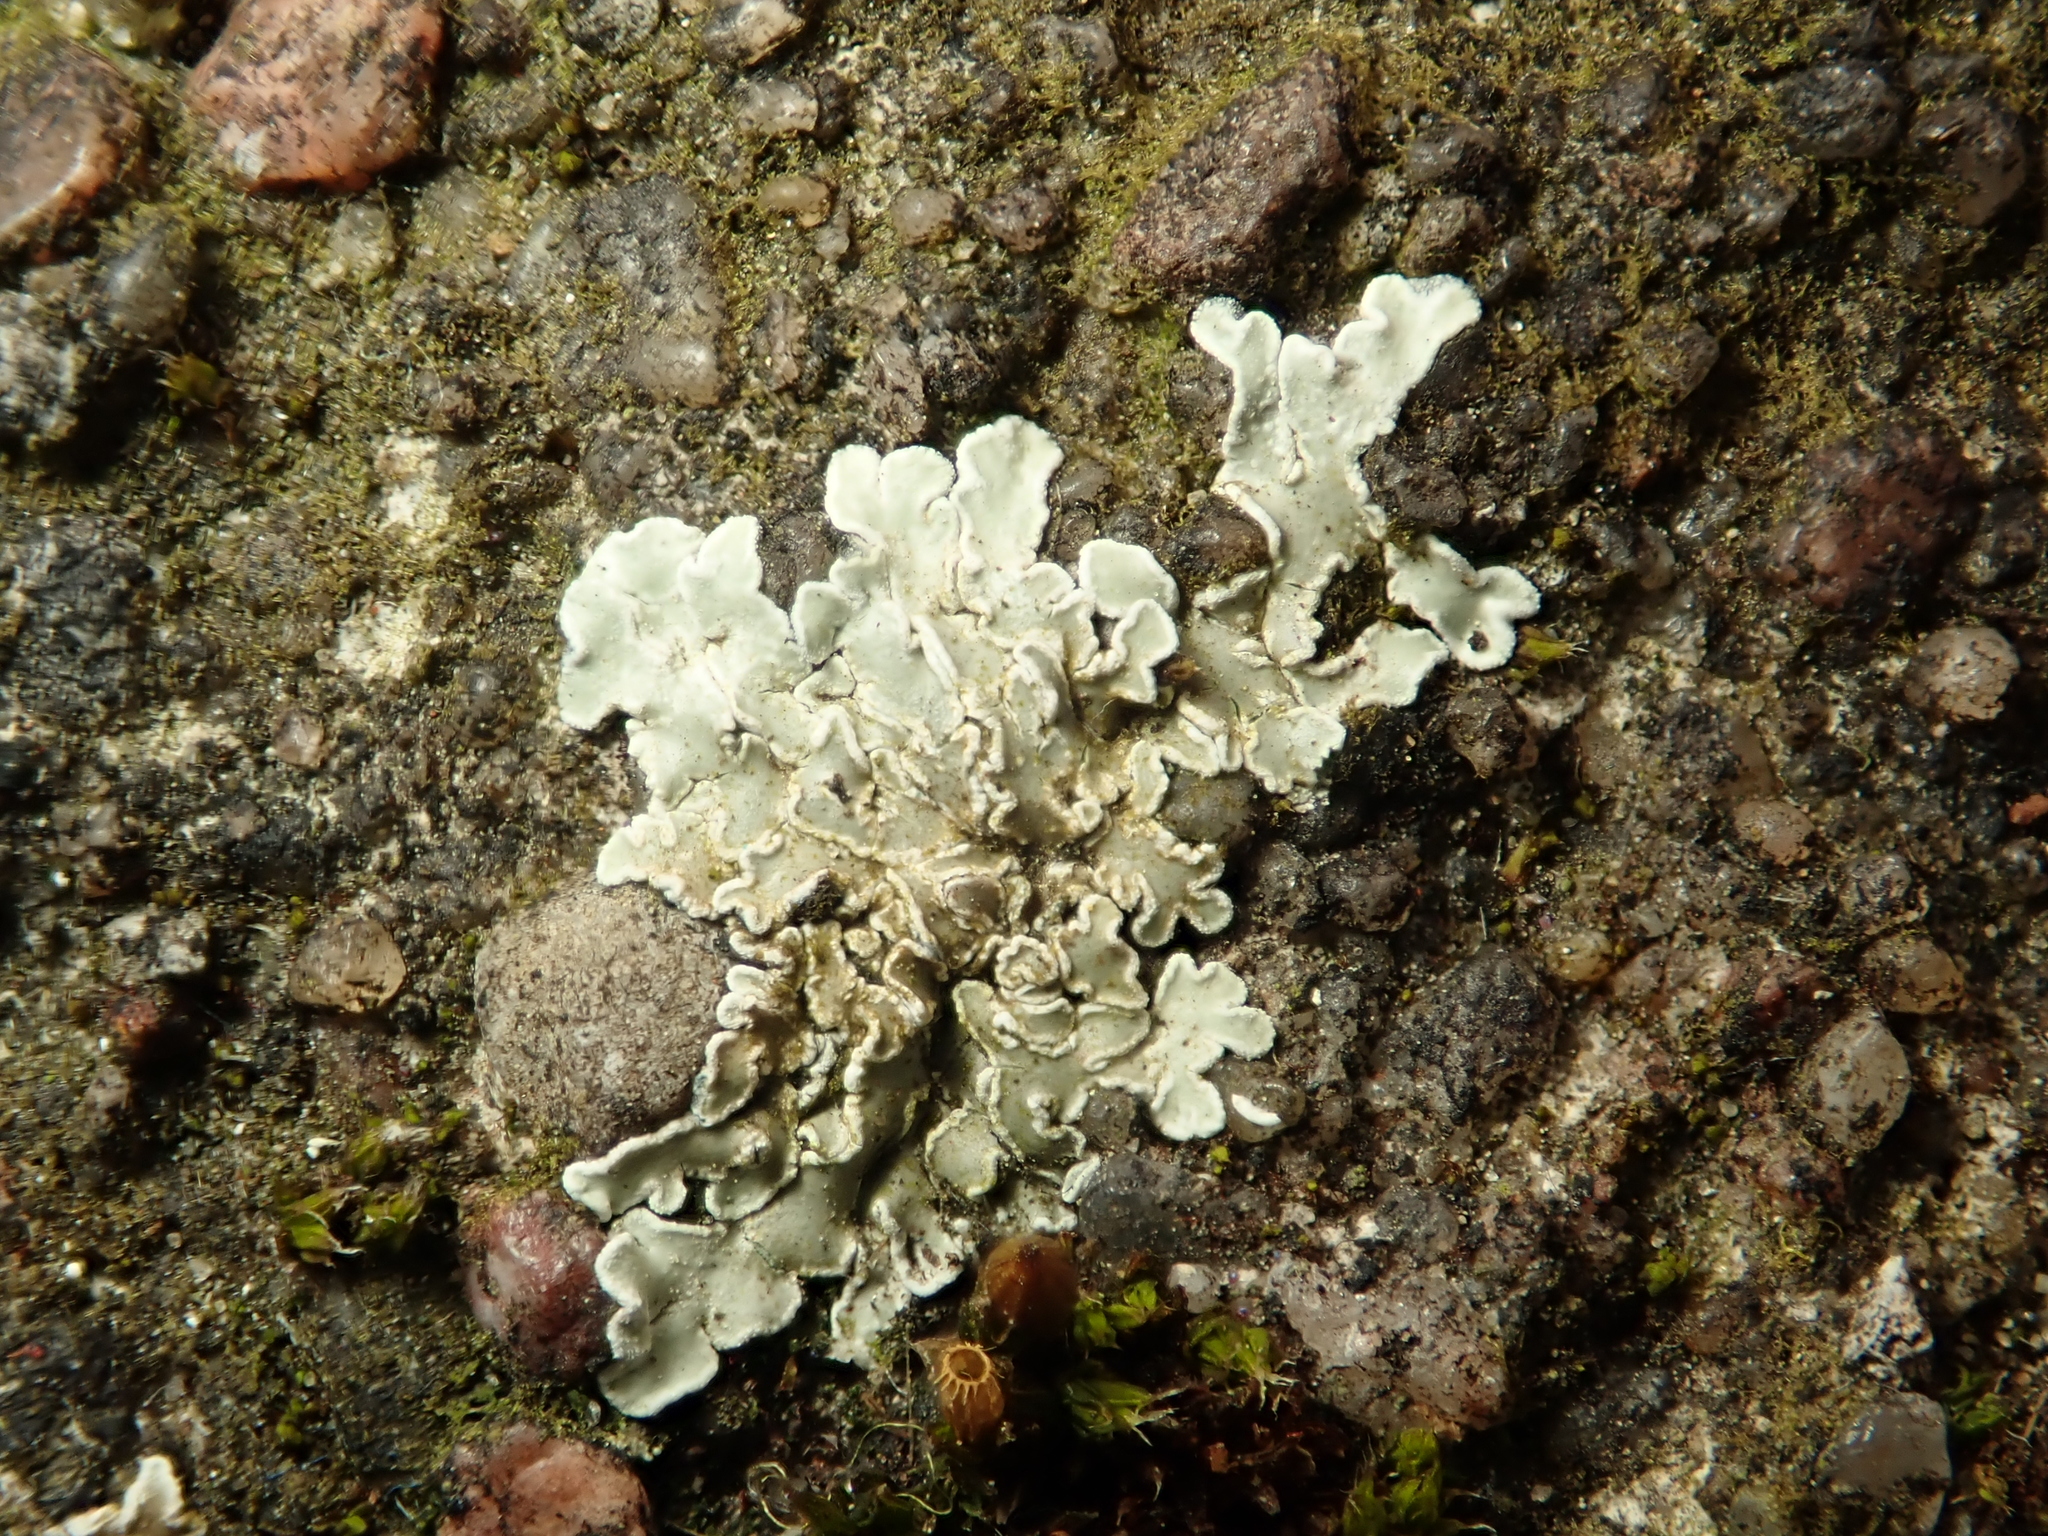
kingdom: Fungi
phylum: Ascomycota
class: Lecanoromycetes
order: Lecanorales
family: Lecanoraceae
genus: Protoparmeliopsis
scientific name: Protoparmeliopsis muralis
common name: Stonewall rim lichen
